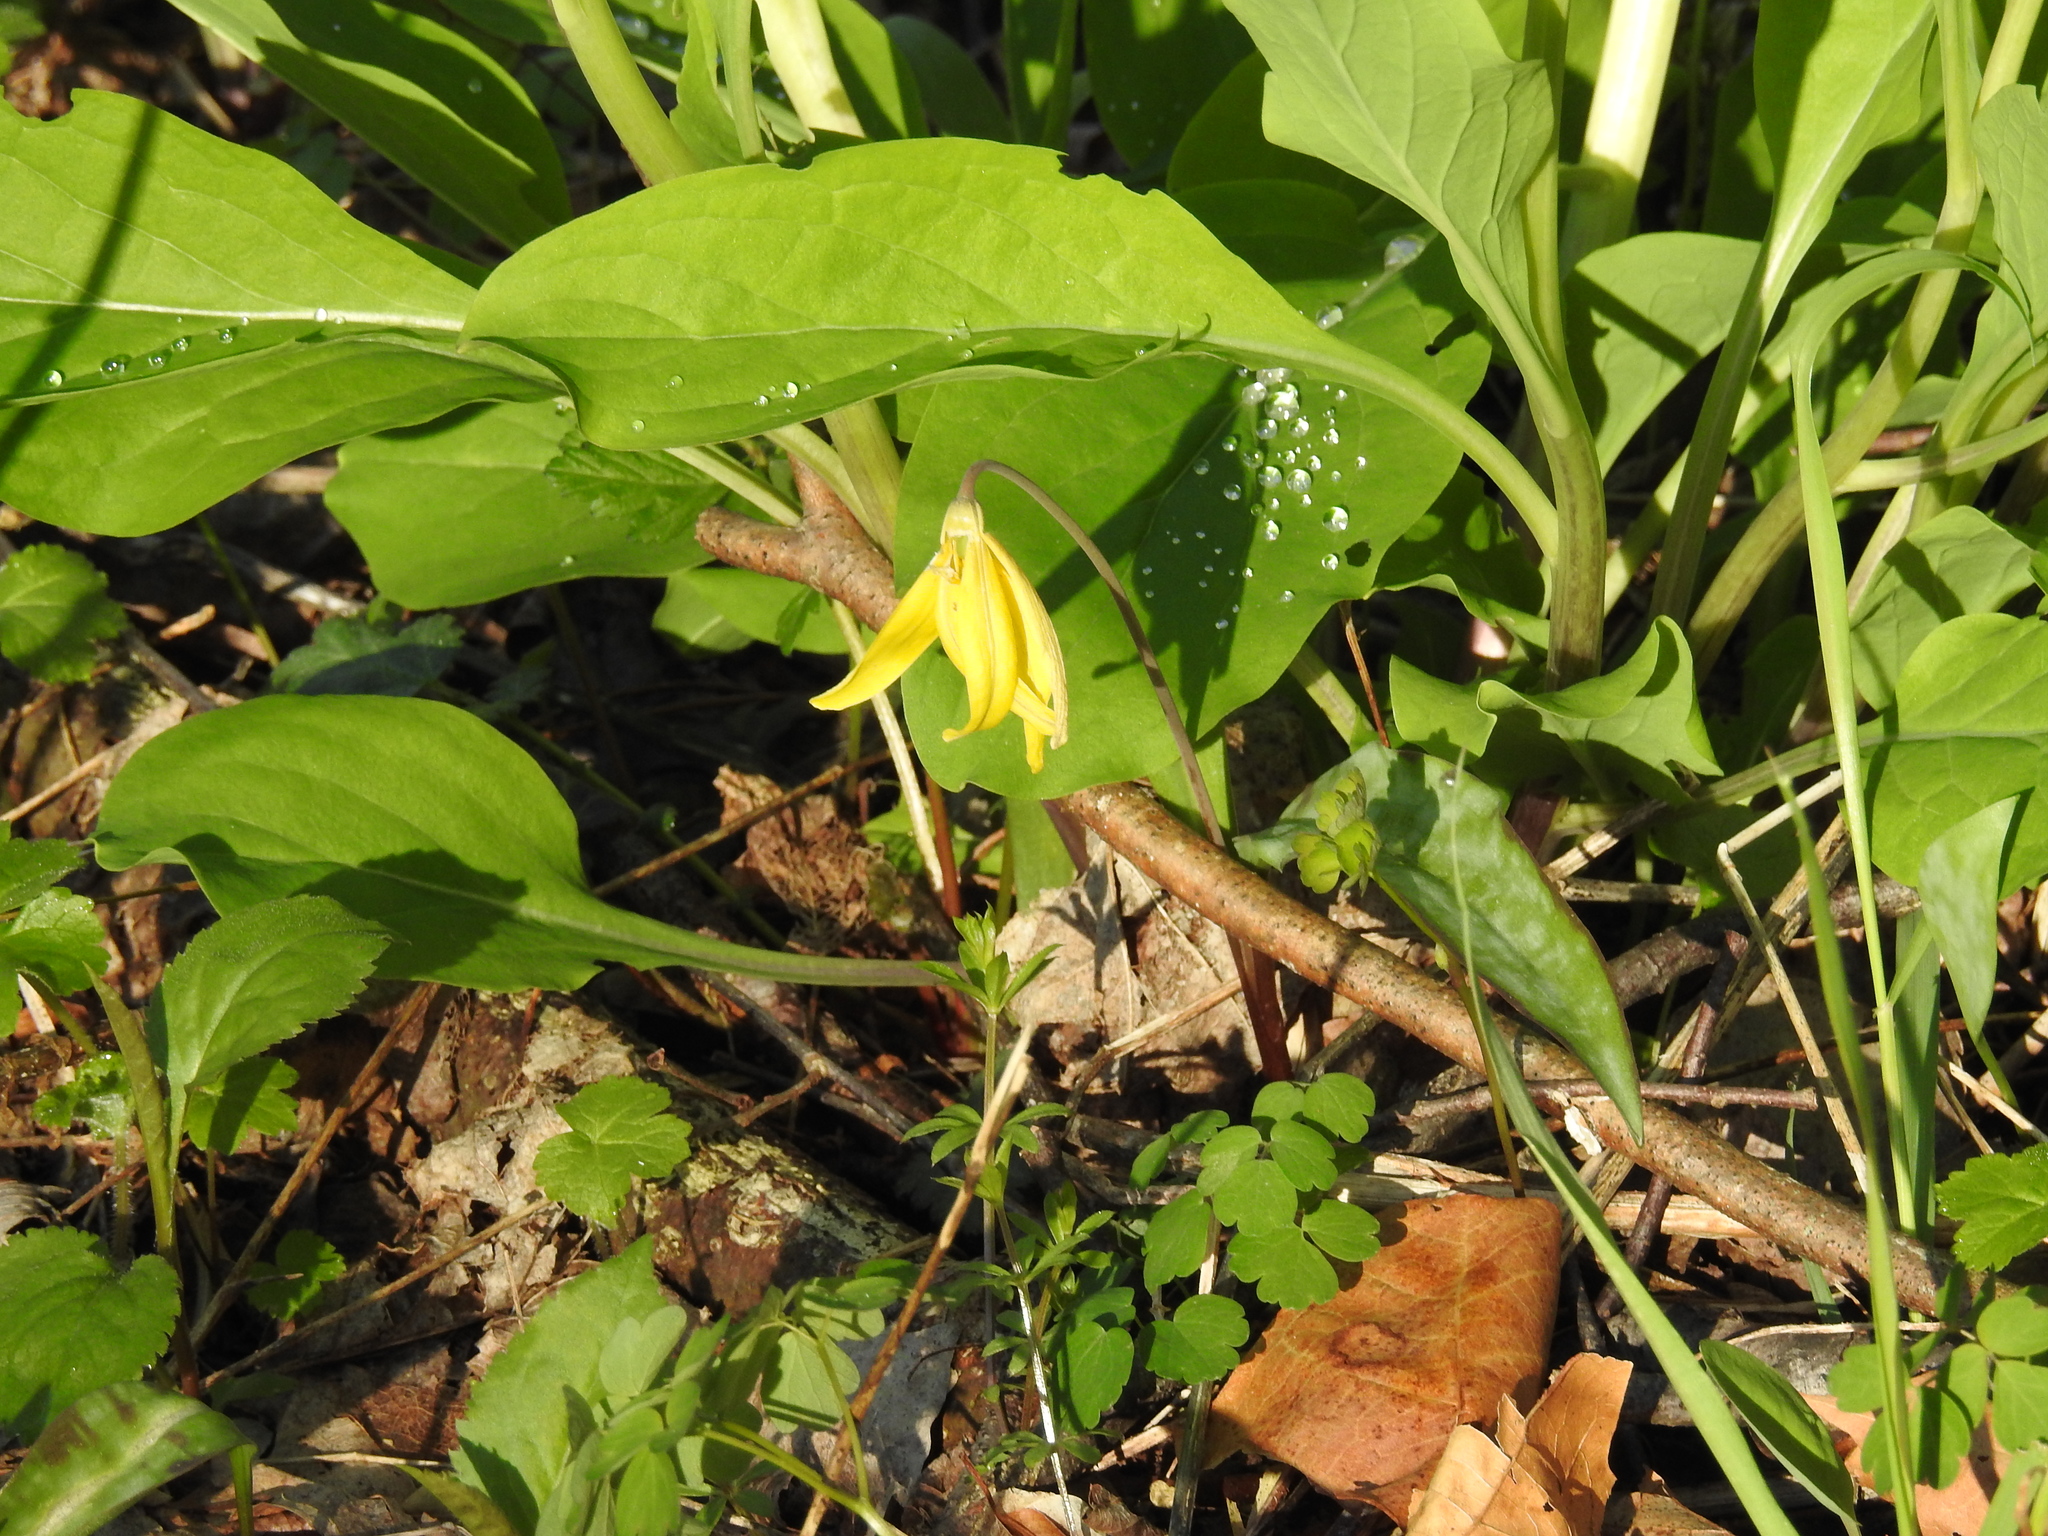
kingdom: Plantae
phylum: Tracheophyta
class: Liliopsida
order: Liliales
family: Liliaceae
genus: Erythronium
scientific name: Erythronium americanum
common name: Yellow adder's-tongue
